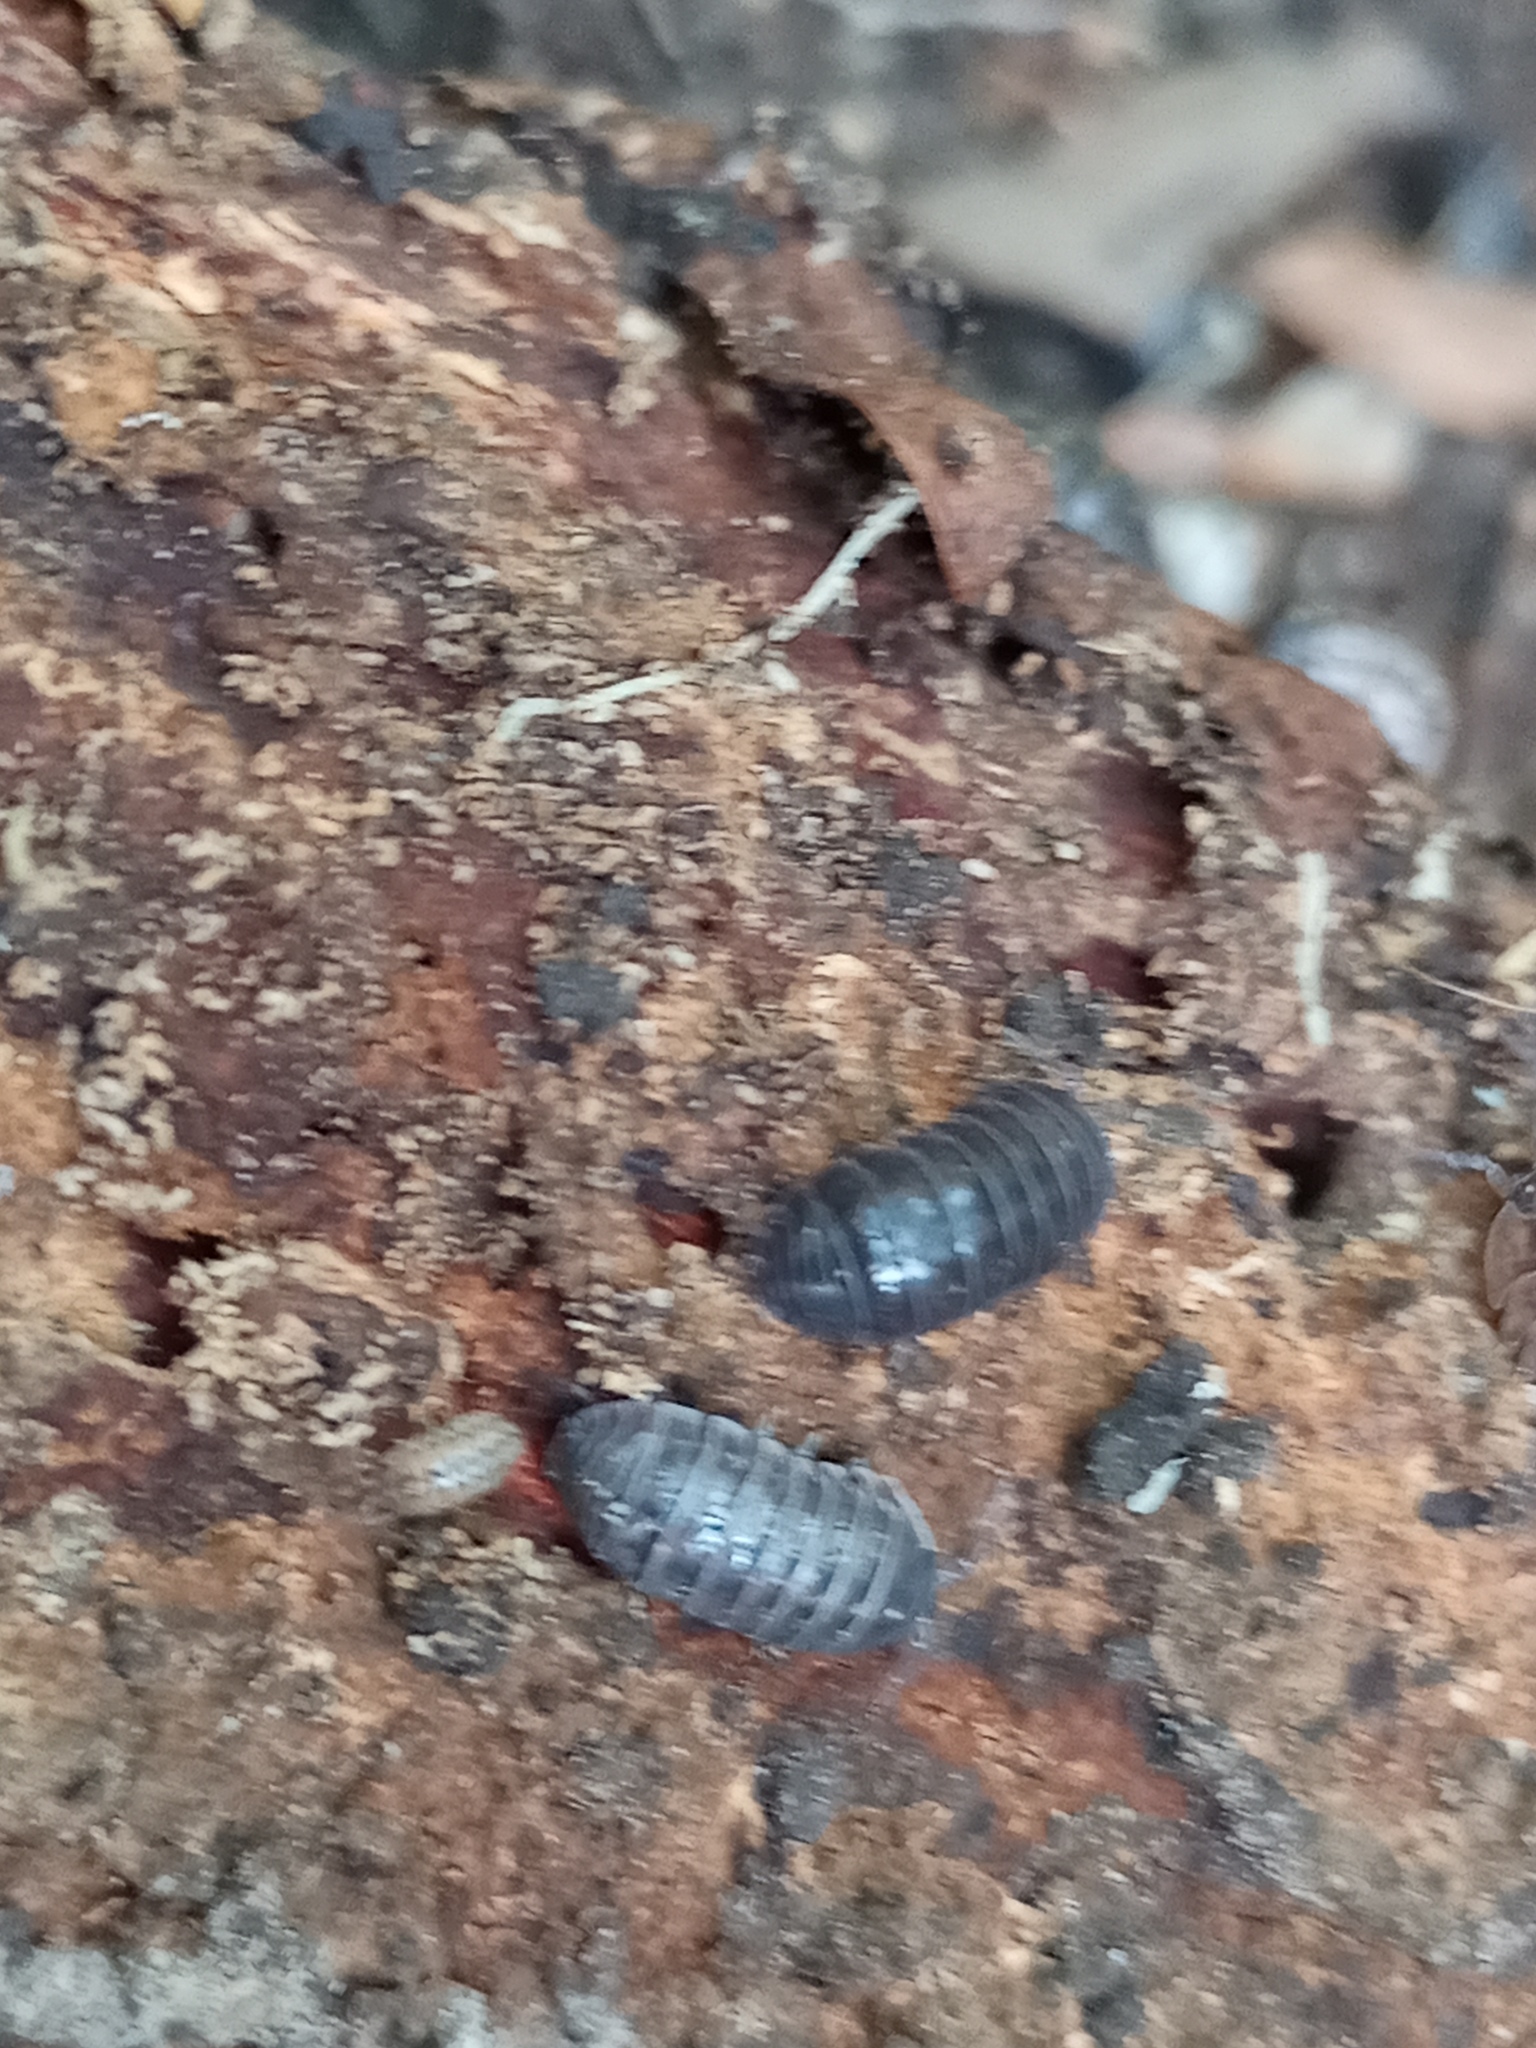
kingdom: Animalia
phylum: Arthropoda
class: Malacostraca
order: Isopoda
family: Armadillidiidae
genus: Armadillidium
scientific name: Armadillidium vulgare
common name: Common pill woodlouse
